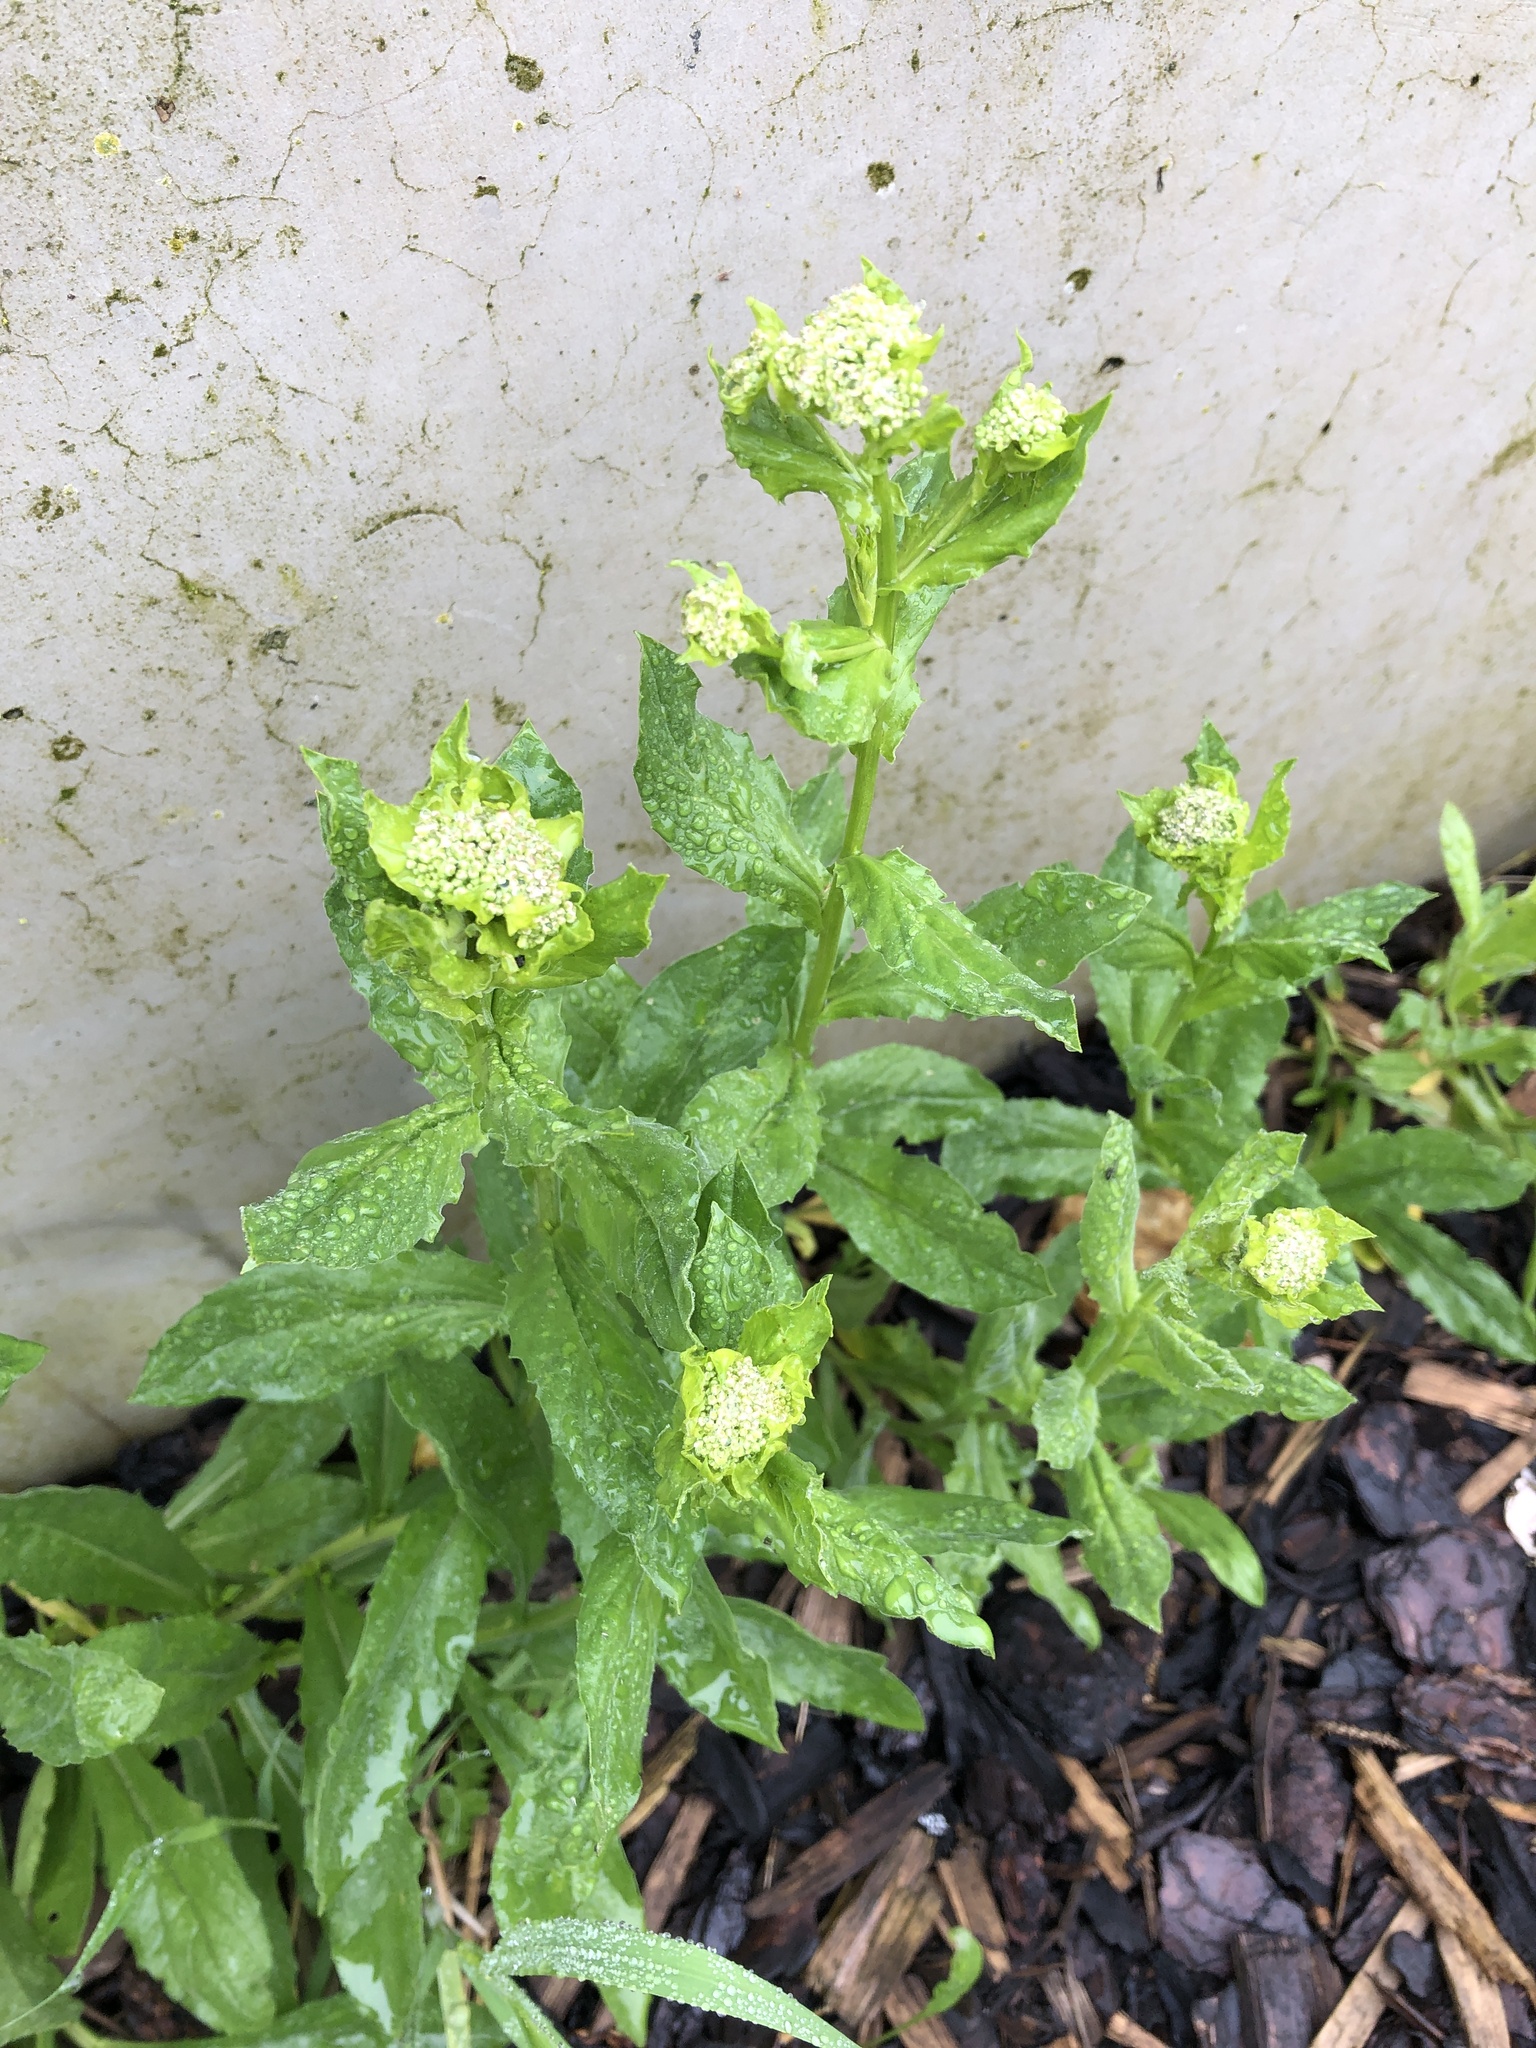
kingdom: Plantae
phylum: Tracheophyta
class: Magnoliopsida
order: Brassicales
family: Brassicaceae
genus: Lepidium
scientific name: Lepidium draba
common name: Hoary cress
